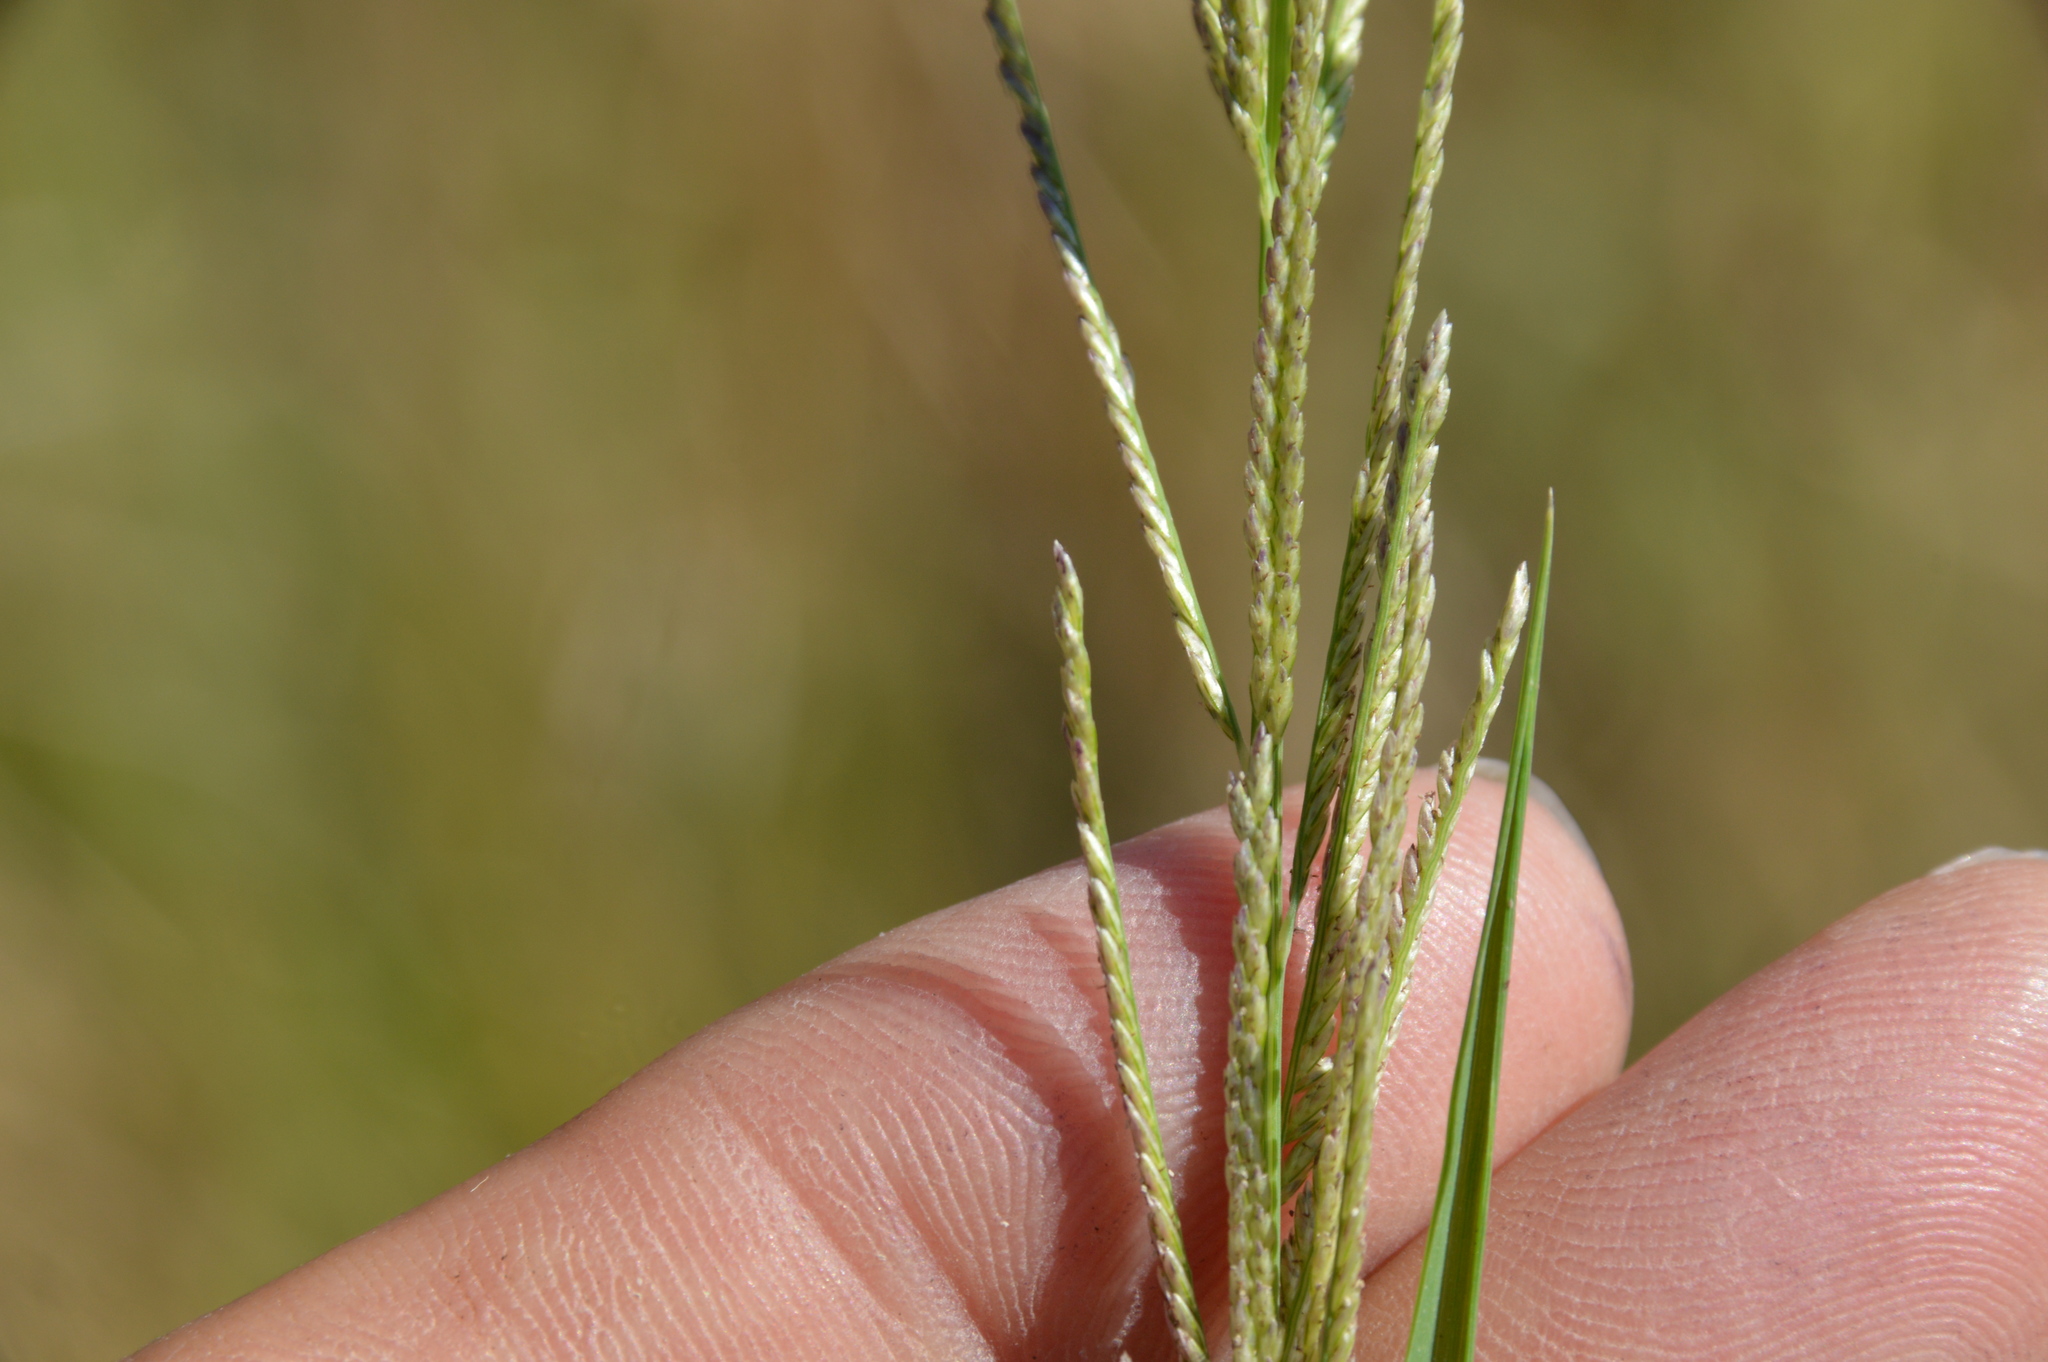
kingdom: Plantae
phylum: Tracheophyta
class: Liliopsida
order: Poales
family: Poaceae
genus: Leptochloa
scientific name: Leptochloa nealleyi
